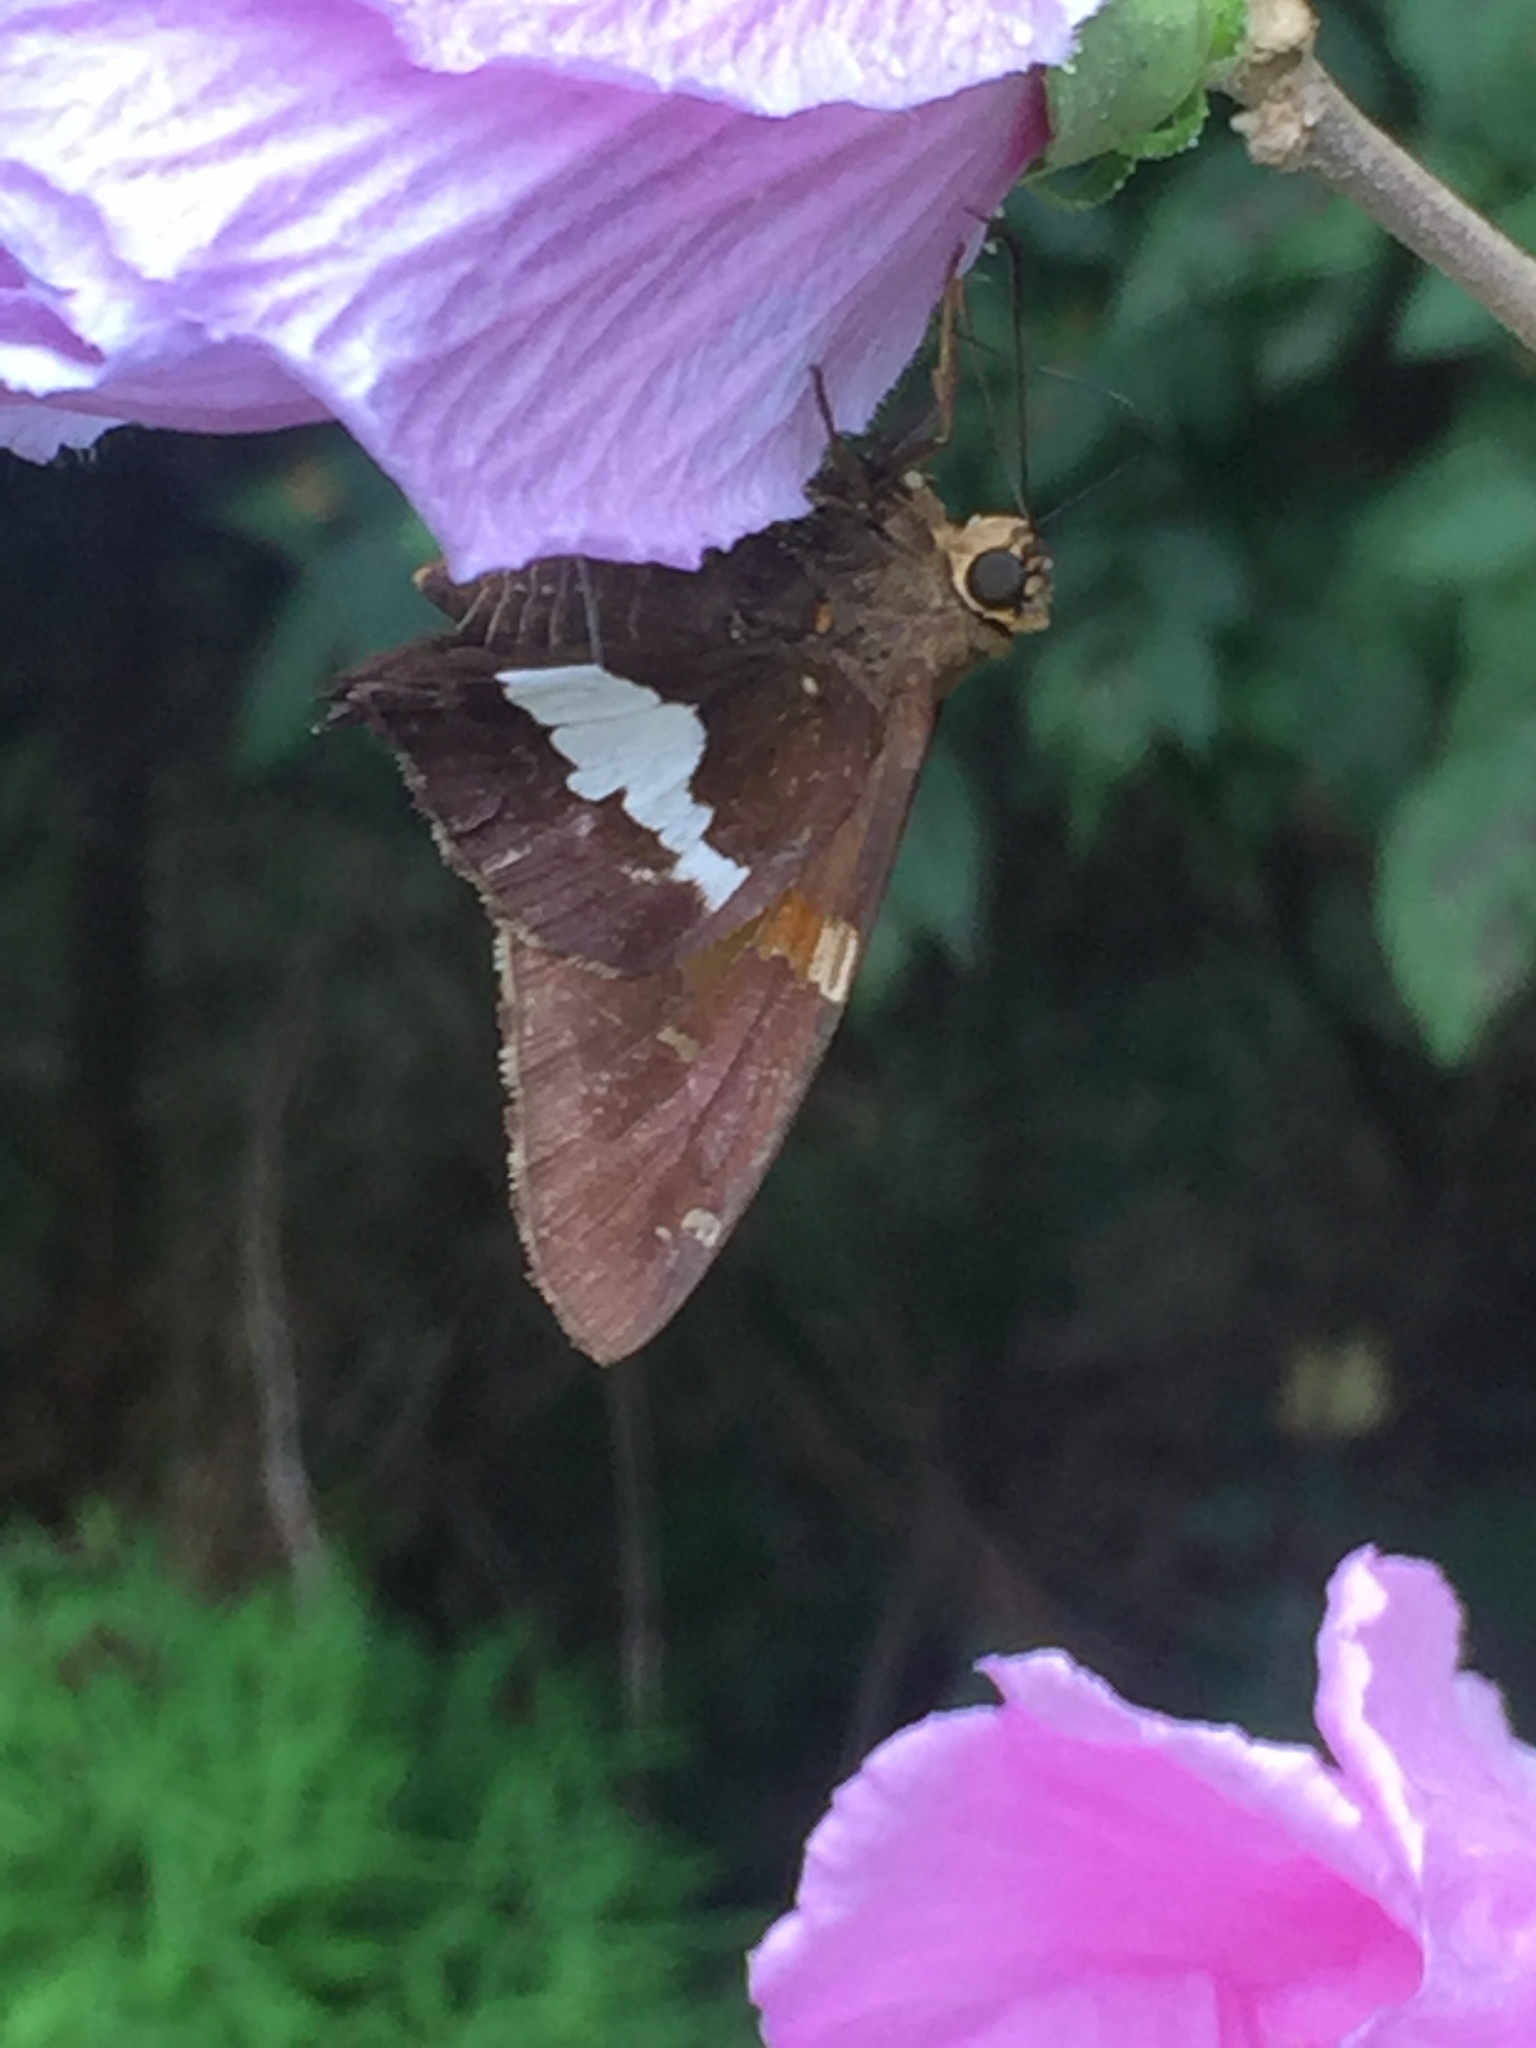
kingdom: Animalia
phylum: Arthropoda
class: Insecta
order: Lepidoptera
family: Hesperiidae
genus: Epargyreus
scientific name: Epargyreus clarus
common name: Silver-spotted skipper
